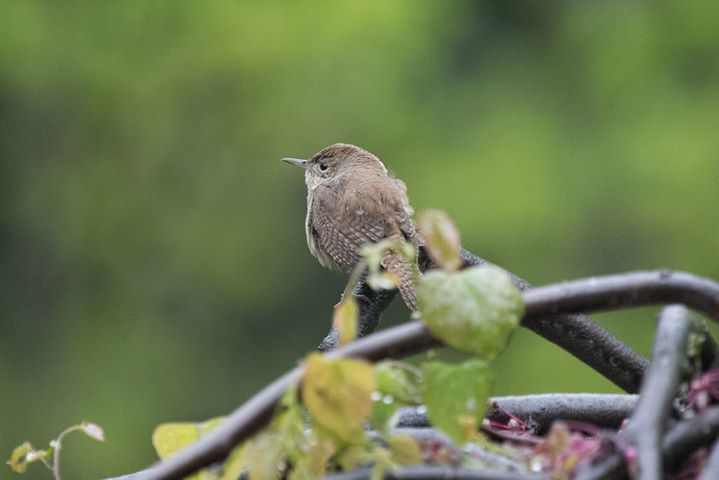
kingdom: Animalia
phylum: Chordata
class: Aves
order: Passeriformes
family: Troglodytidae
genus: Troglodytes
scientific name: Troglodytes aedon
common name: House wren
